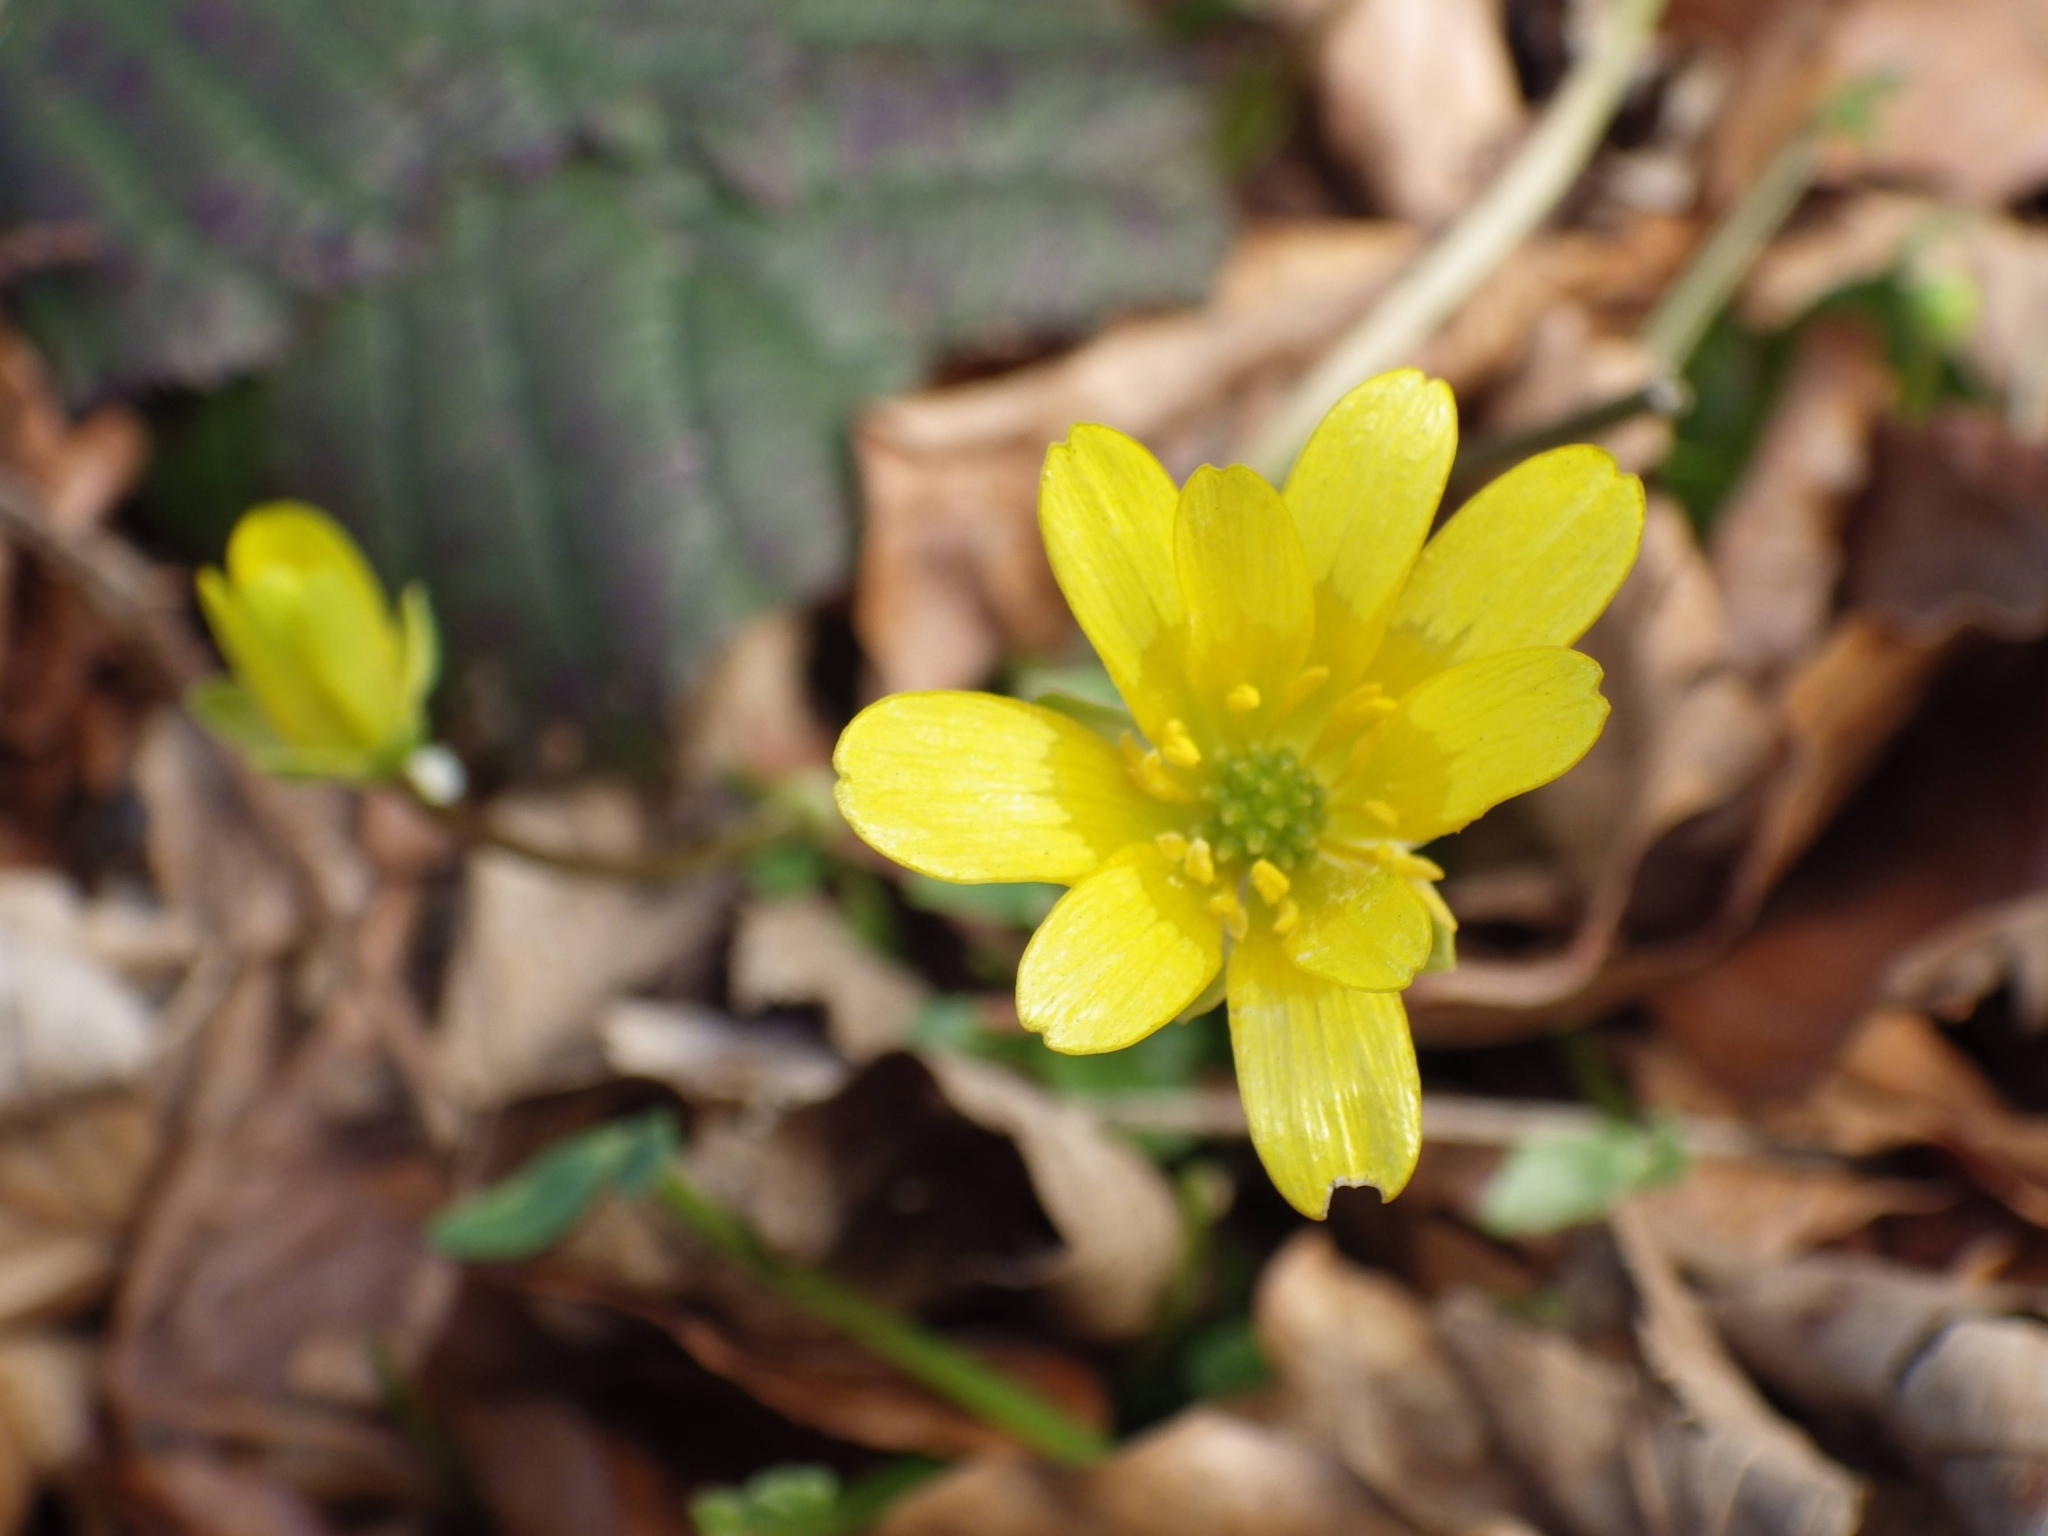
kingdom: Plantae
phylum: Tracheophyta
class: Magnoliopsida
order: Ranunculales
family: Ranunculaceae
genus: Ficaria
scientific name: Ficaria verna
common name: Lesser celandine
